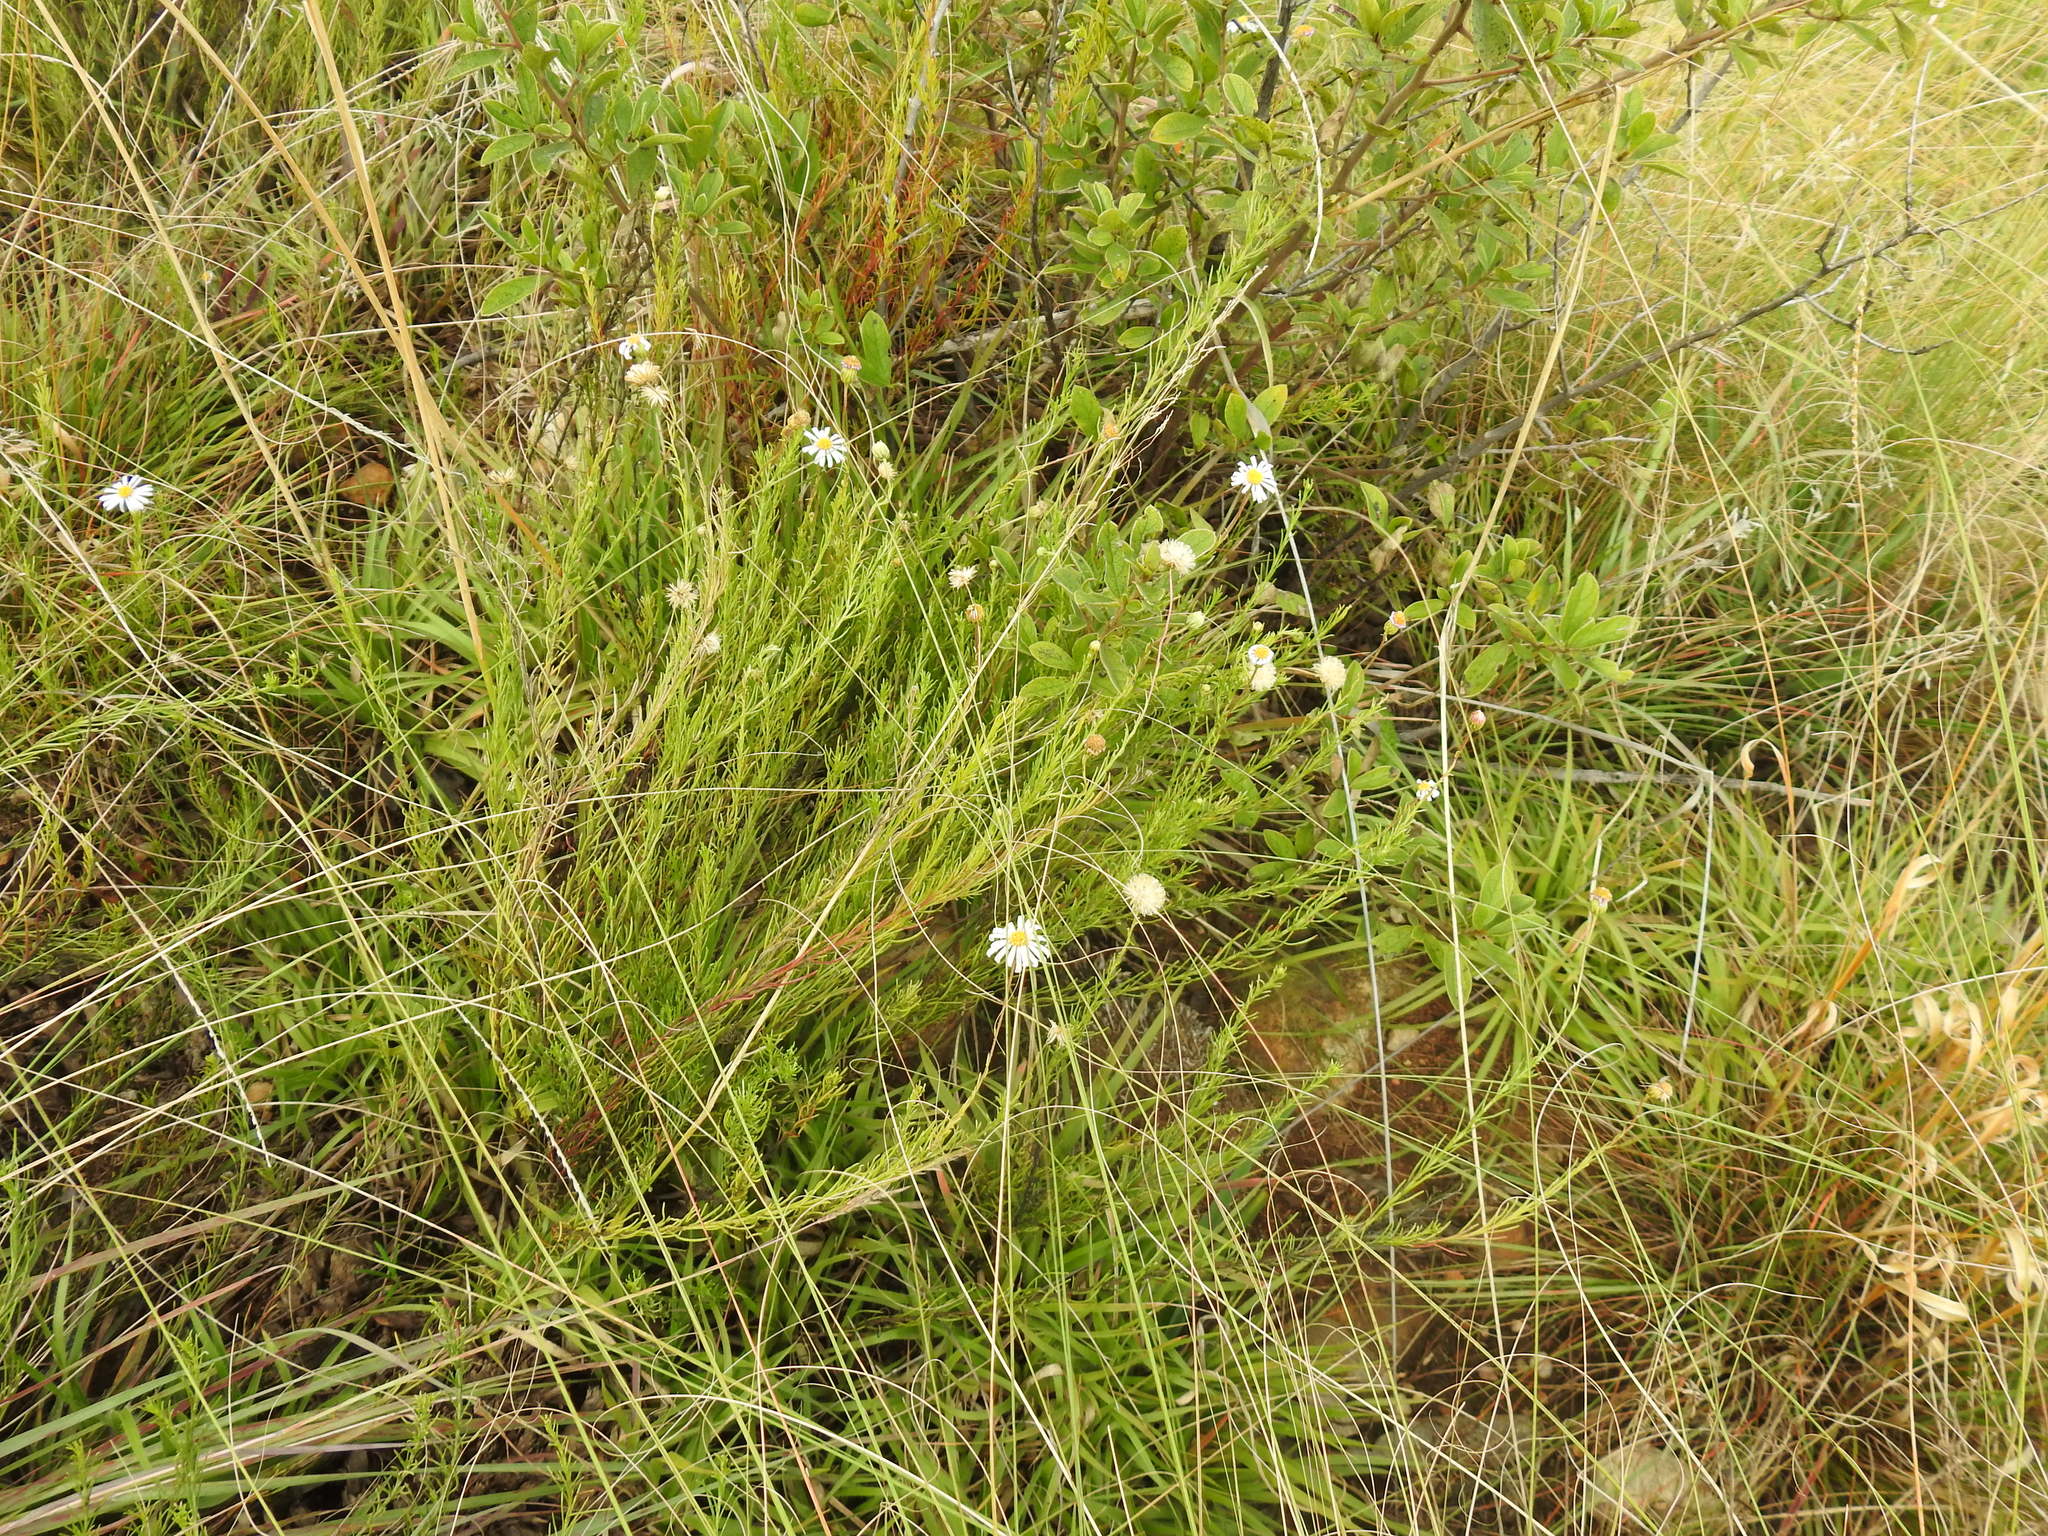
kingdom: Plantae
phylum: Tracheophyta
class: Magnoliopsida
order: Asterales
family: Asteraceae
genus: Felicia
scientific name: Felicia muricata
